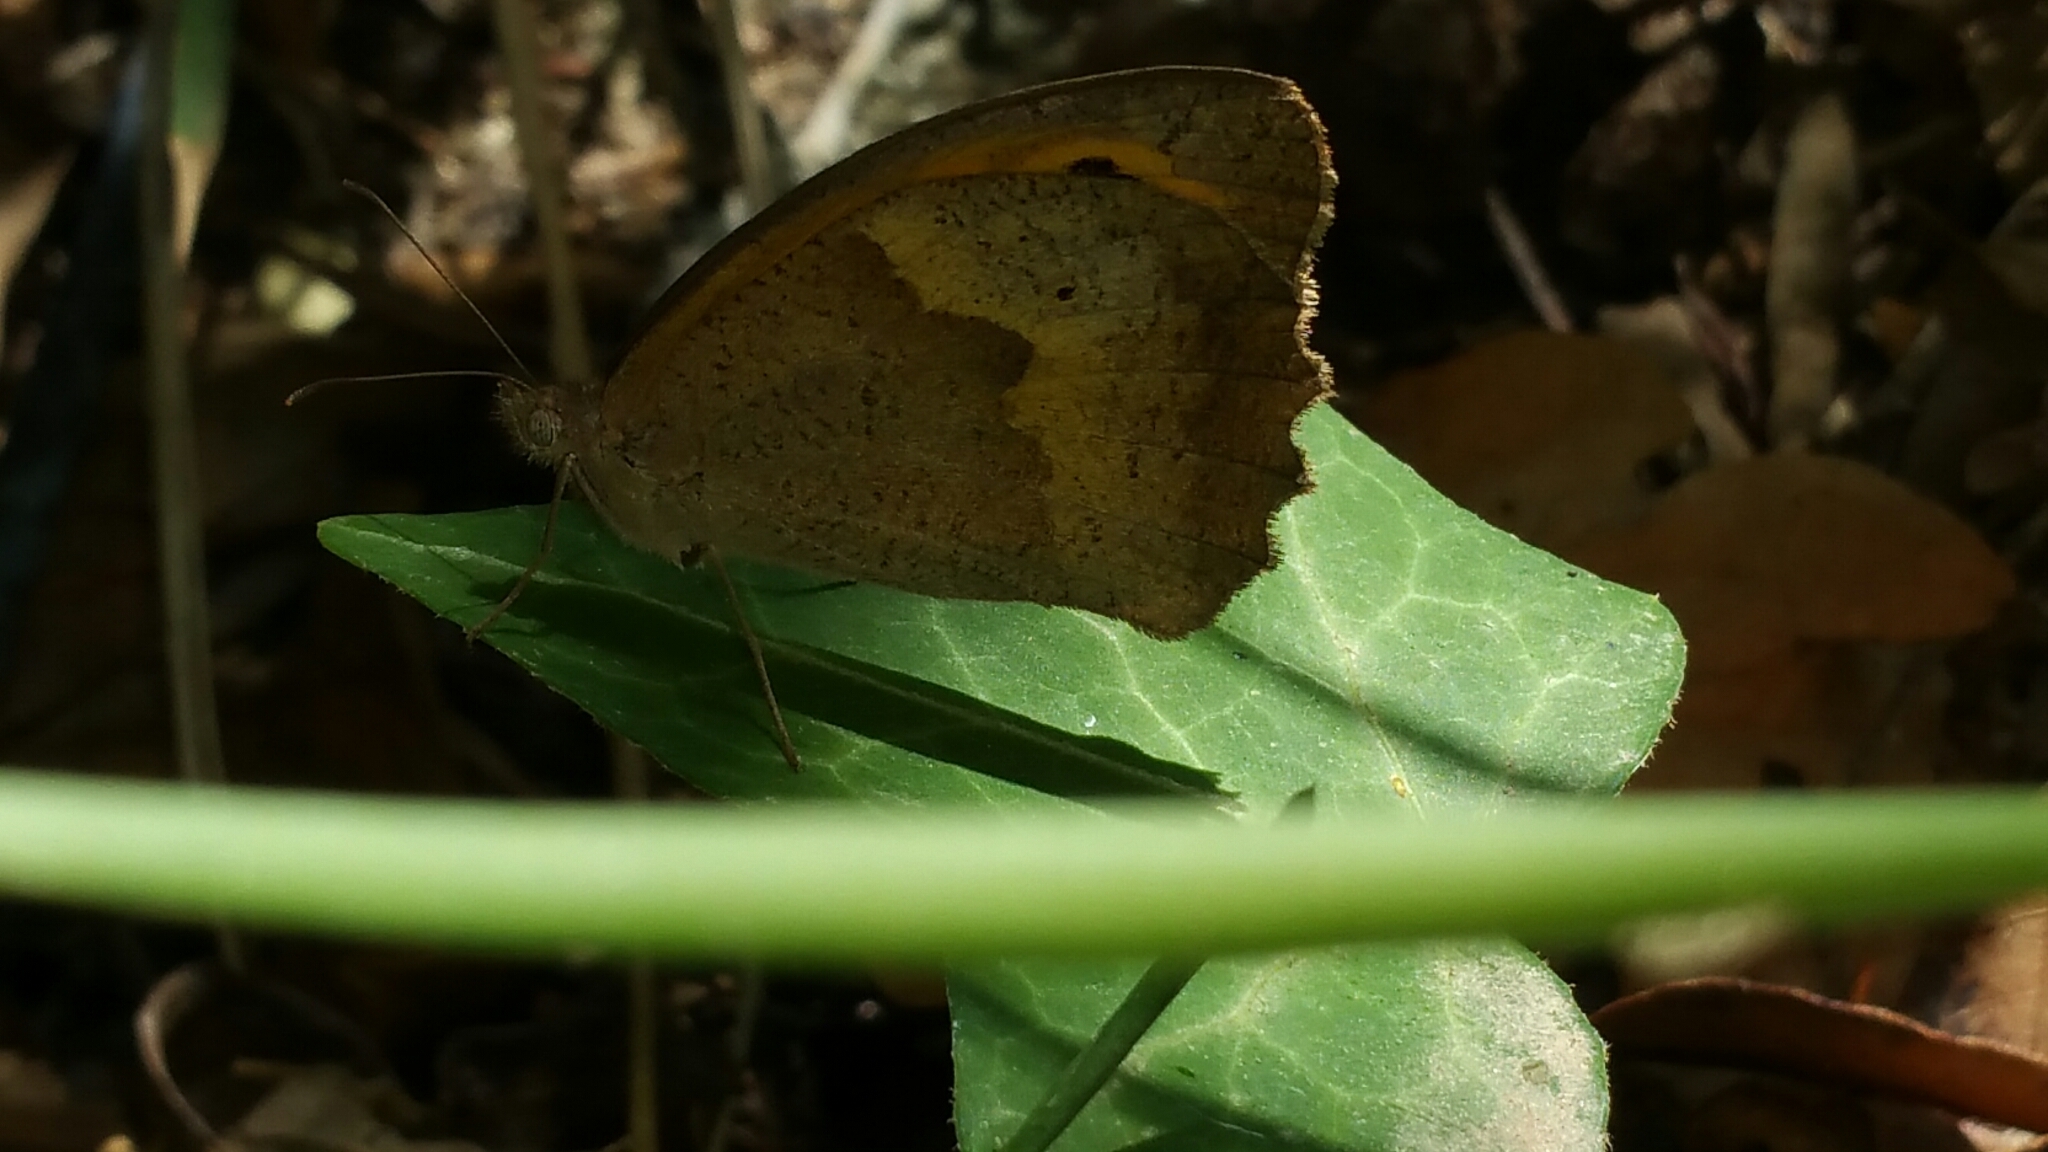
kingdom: Animalia
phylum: Arthropoda
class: Insecta
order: Lepidoptera
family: Nymphalidae
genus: Maniola
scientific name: Maniola jurtina
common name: Meadow brown
